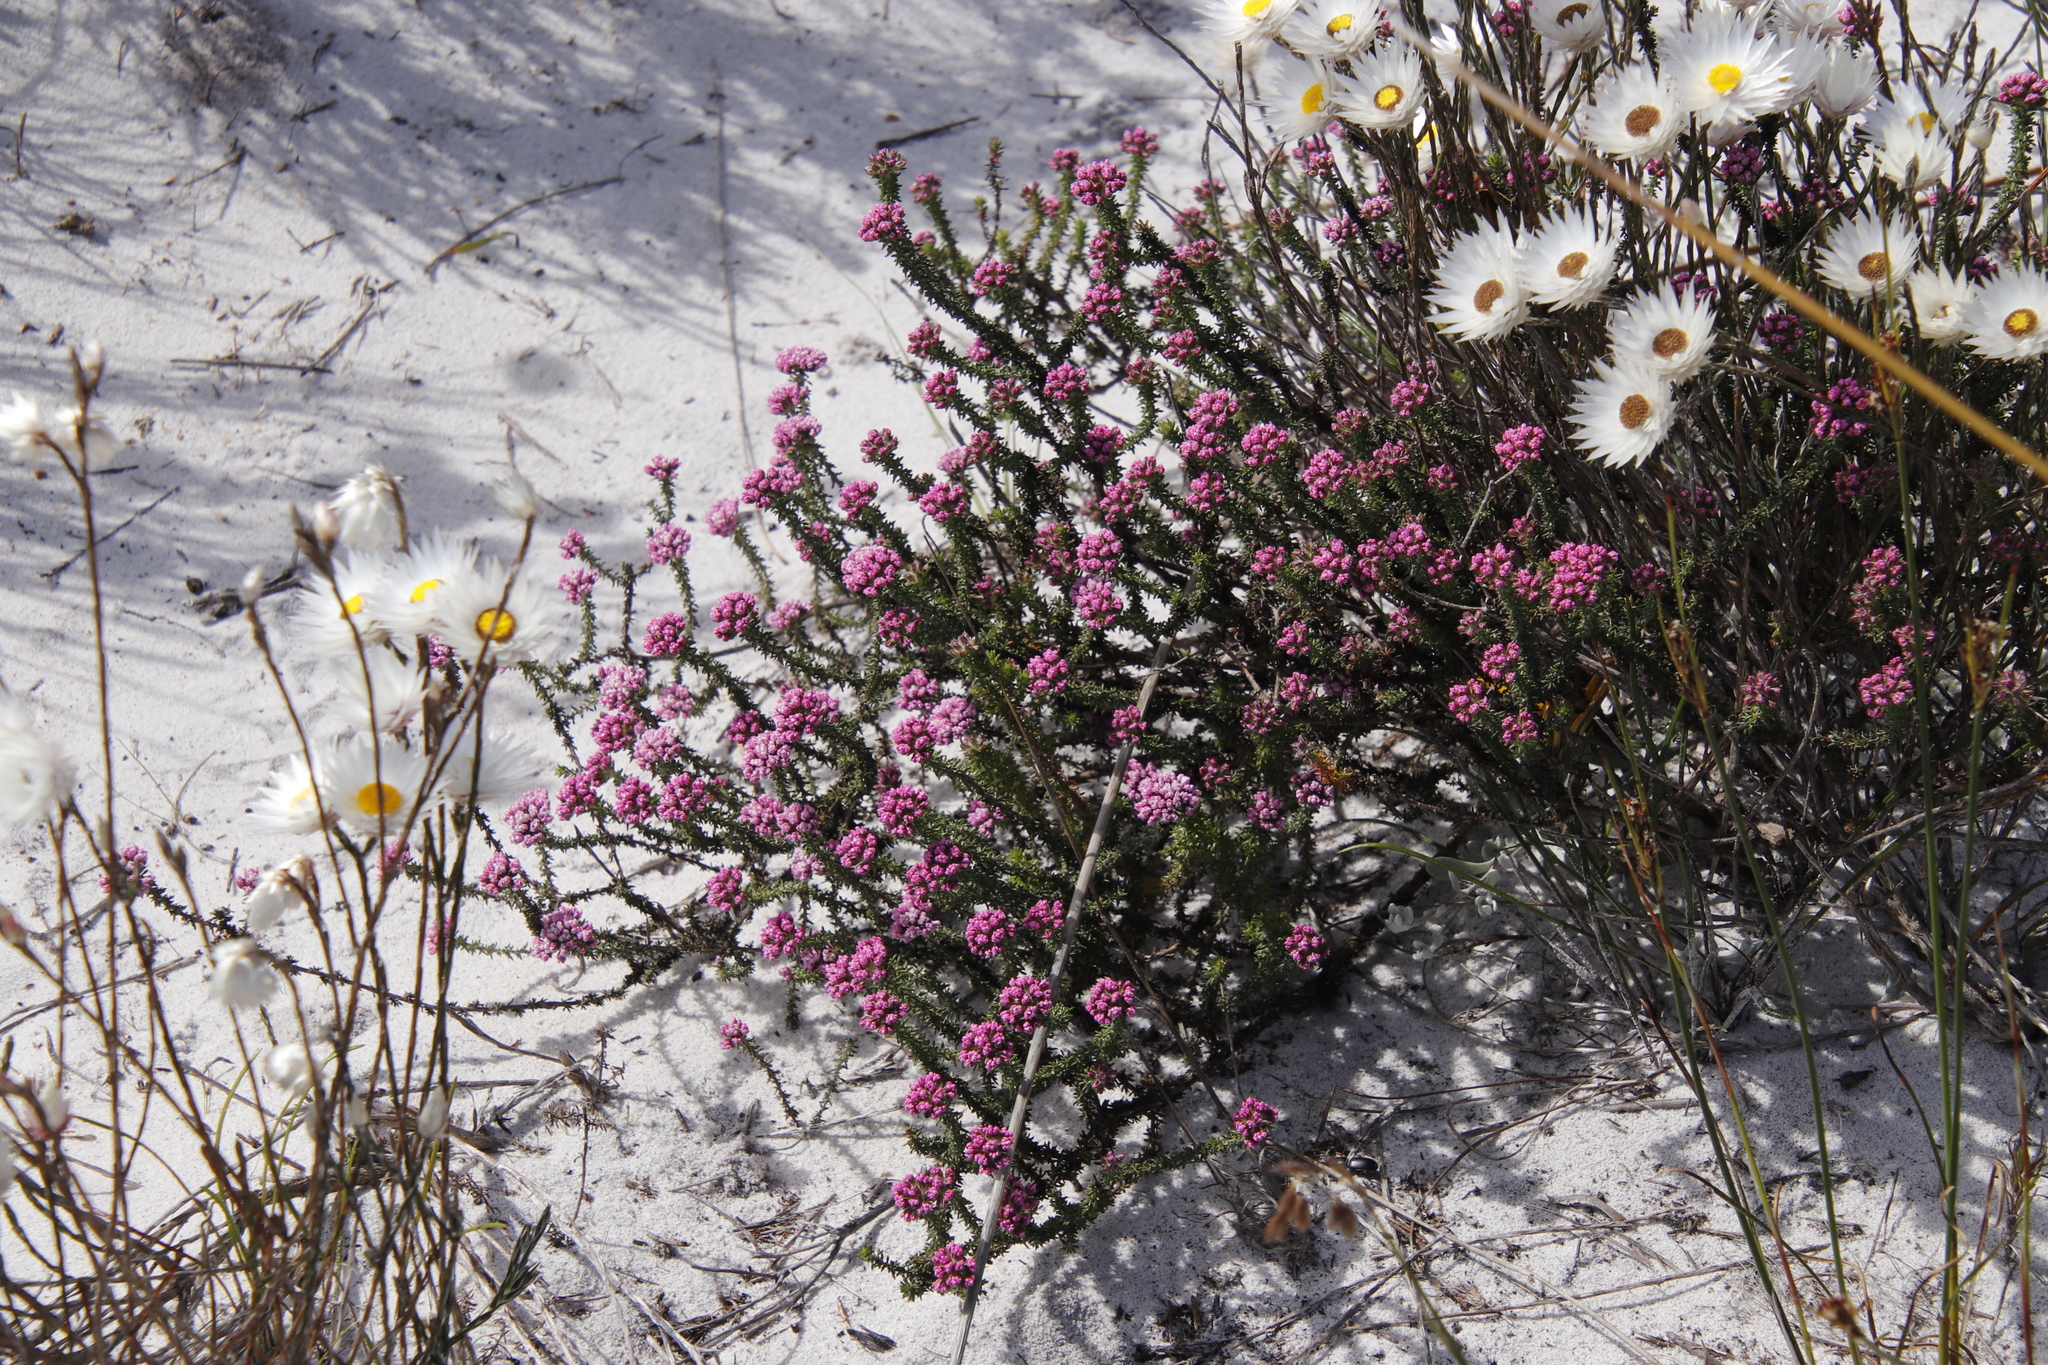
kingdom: Plantae
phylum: Tracheophyta
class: Magnoliopsida
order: Asterales
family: Asteraceae
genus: Metalasia
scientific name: Metalasia erubescens
